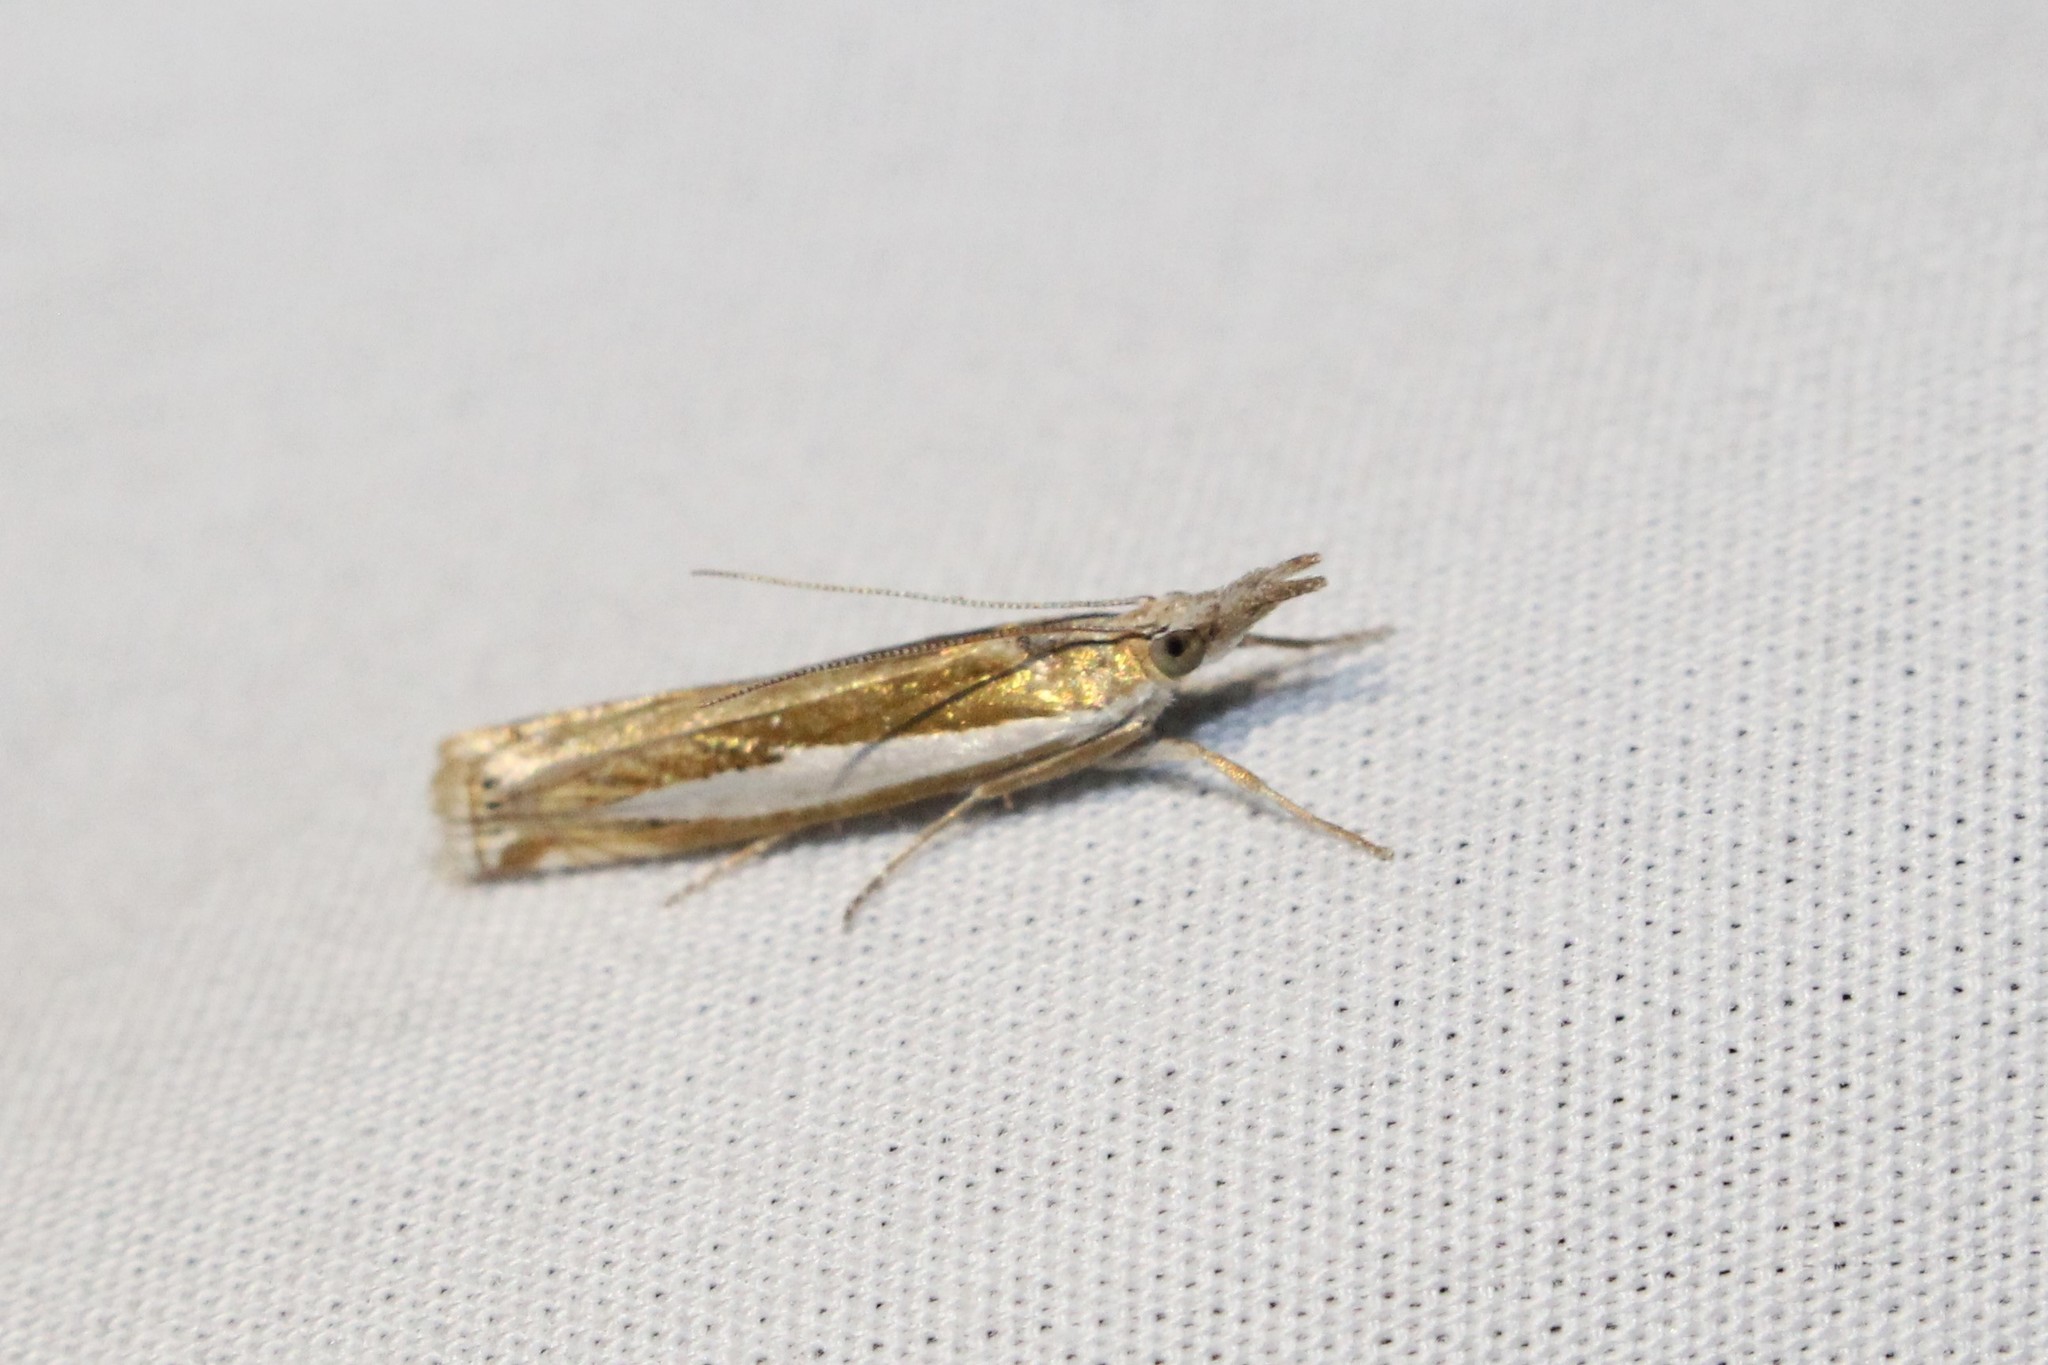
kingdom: Animalia
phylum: Arthropoda
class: Insecta
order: Lepidoptera
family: Crambidae
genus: Crambus
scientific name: Crambus praefectellus
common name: Common grass-veneer
